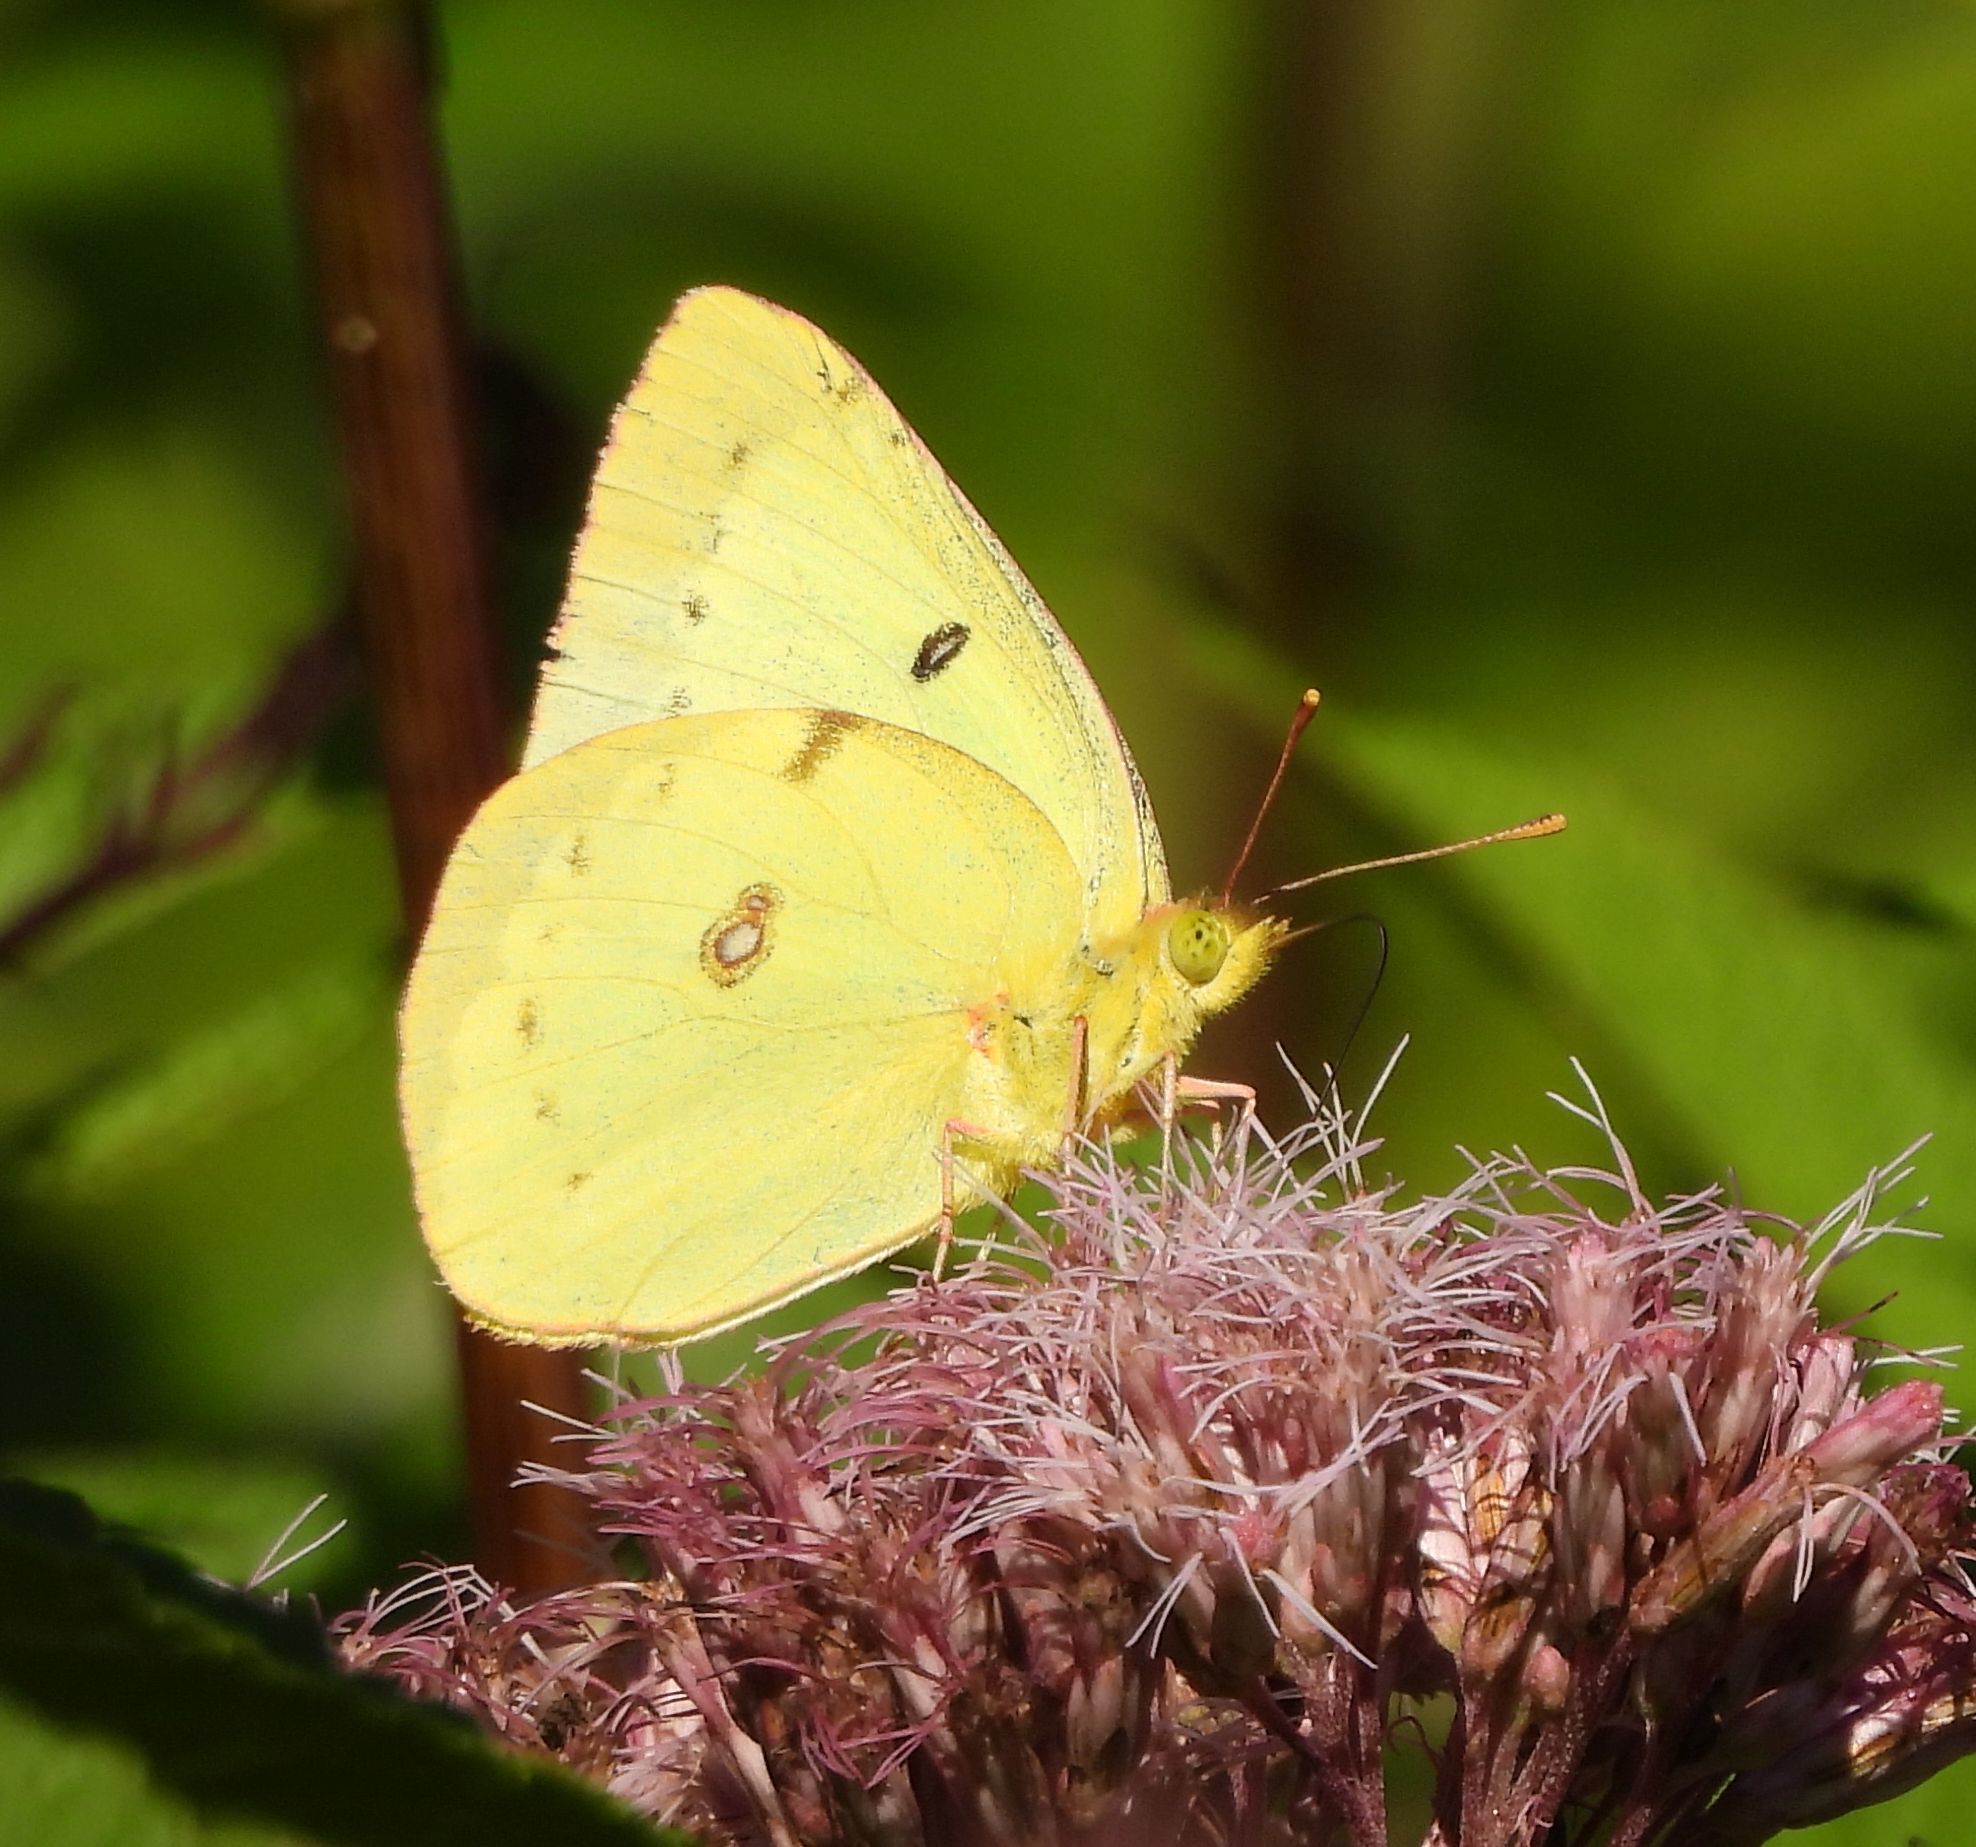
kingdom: Animalia
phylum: Arthropoda
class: Insecta
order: Lepidoptera
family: Pieridae
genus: Colias
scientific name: Colias philodice
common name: Clouded sulphur
